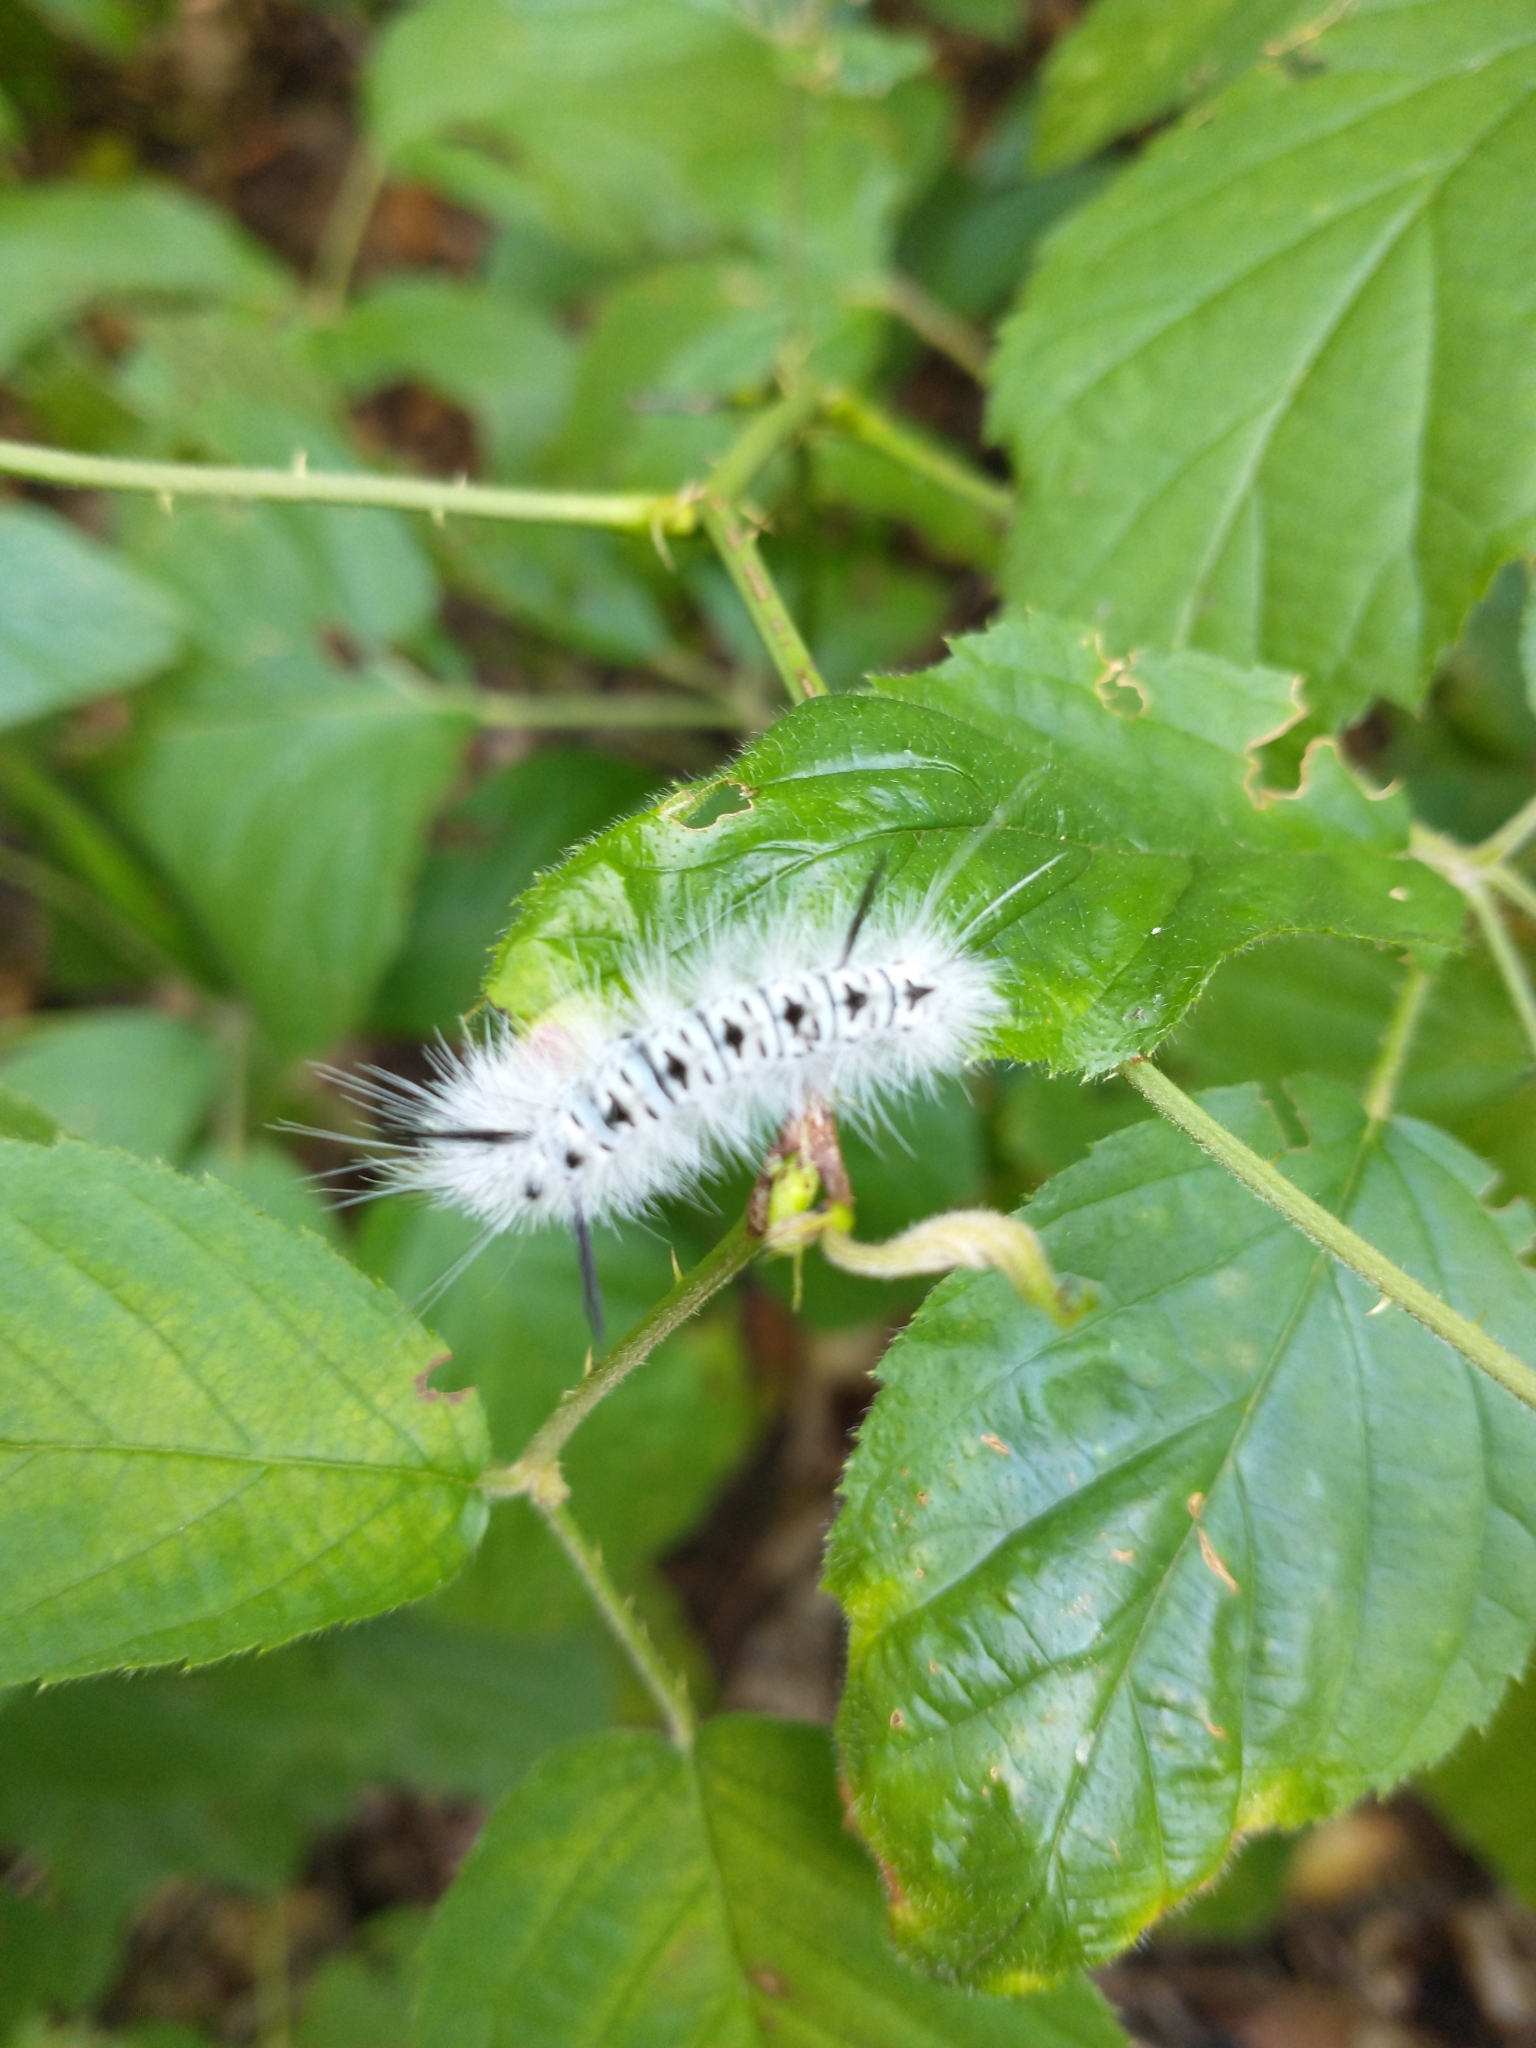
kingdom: Animalia
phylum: Arthropoda
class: Insecta
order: Lepidoptera
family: Erebidae
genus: Lophocampa
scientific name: Lophocampa caryae
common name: Hickory tussock moth
